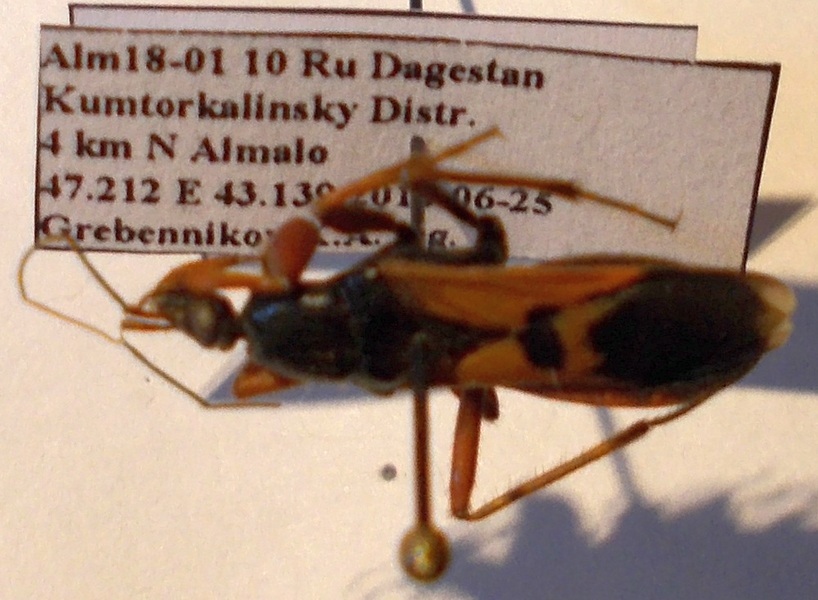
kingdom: Animalia
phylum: Arthropoda
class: Insecta
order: Hemiptera
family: Reduviidae
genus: Ectomocoris
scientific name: Ectomocoris ululans
